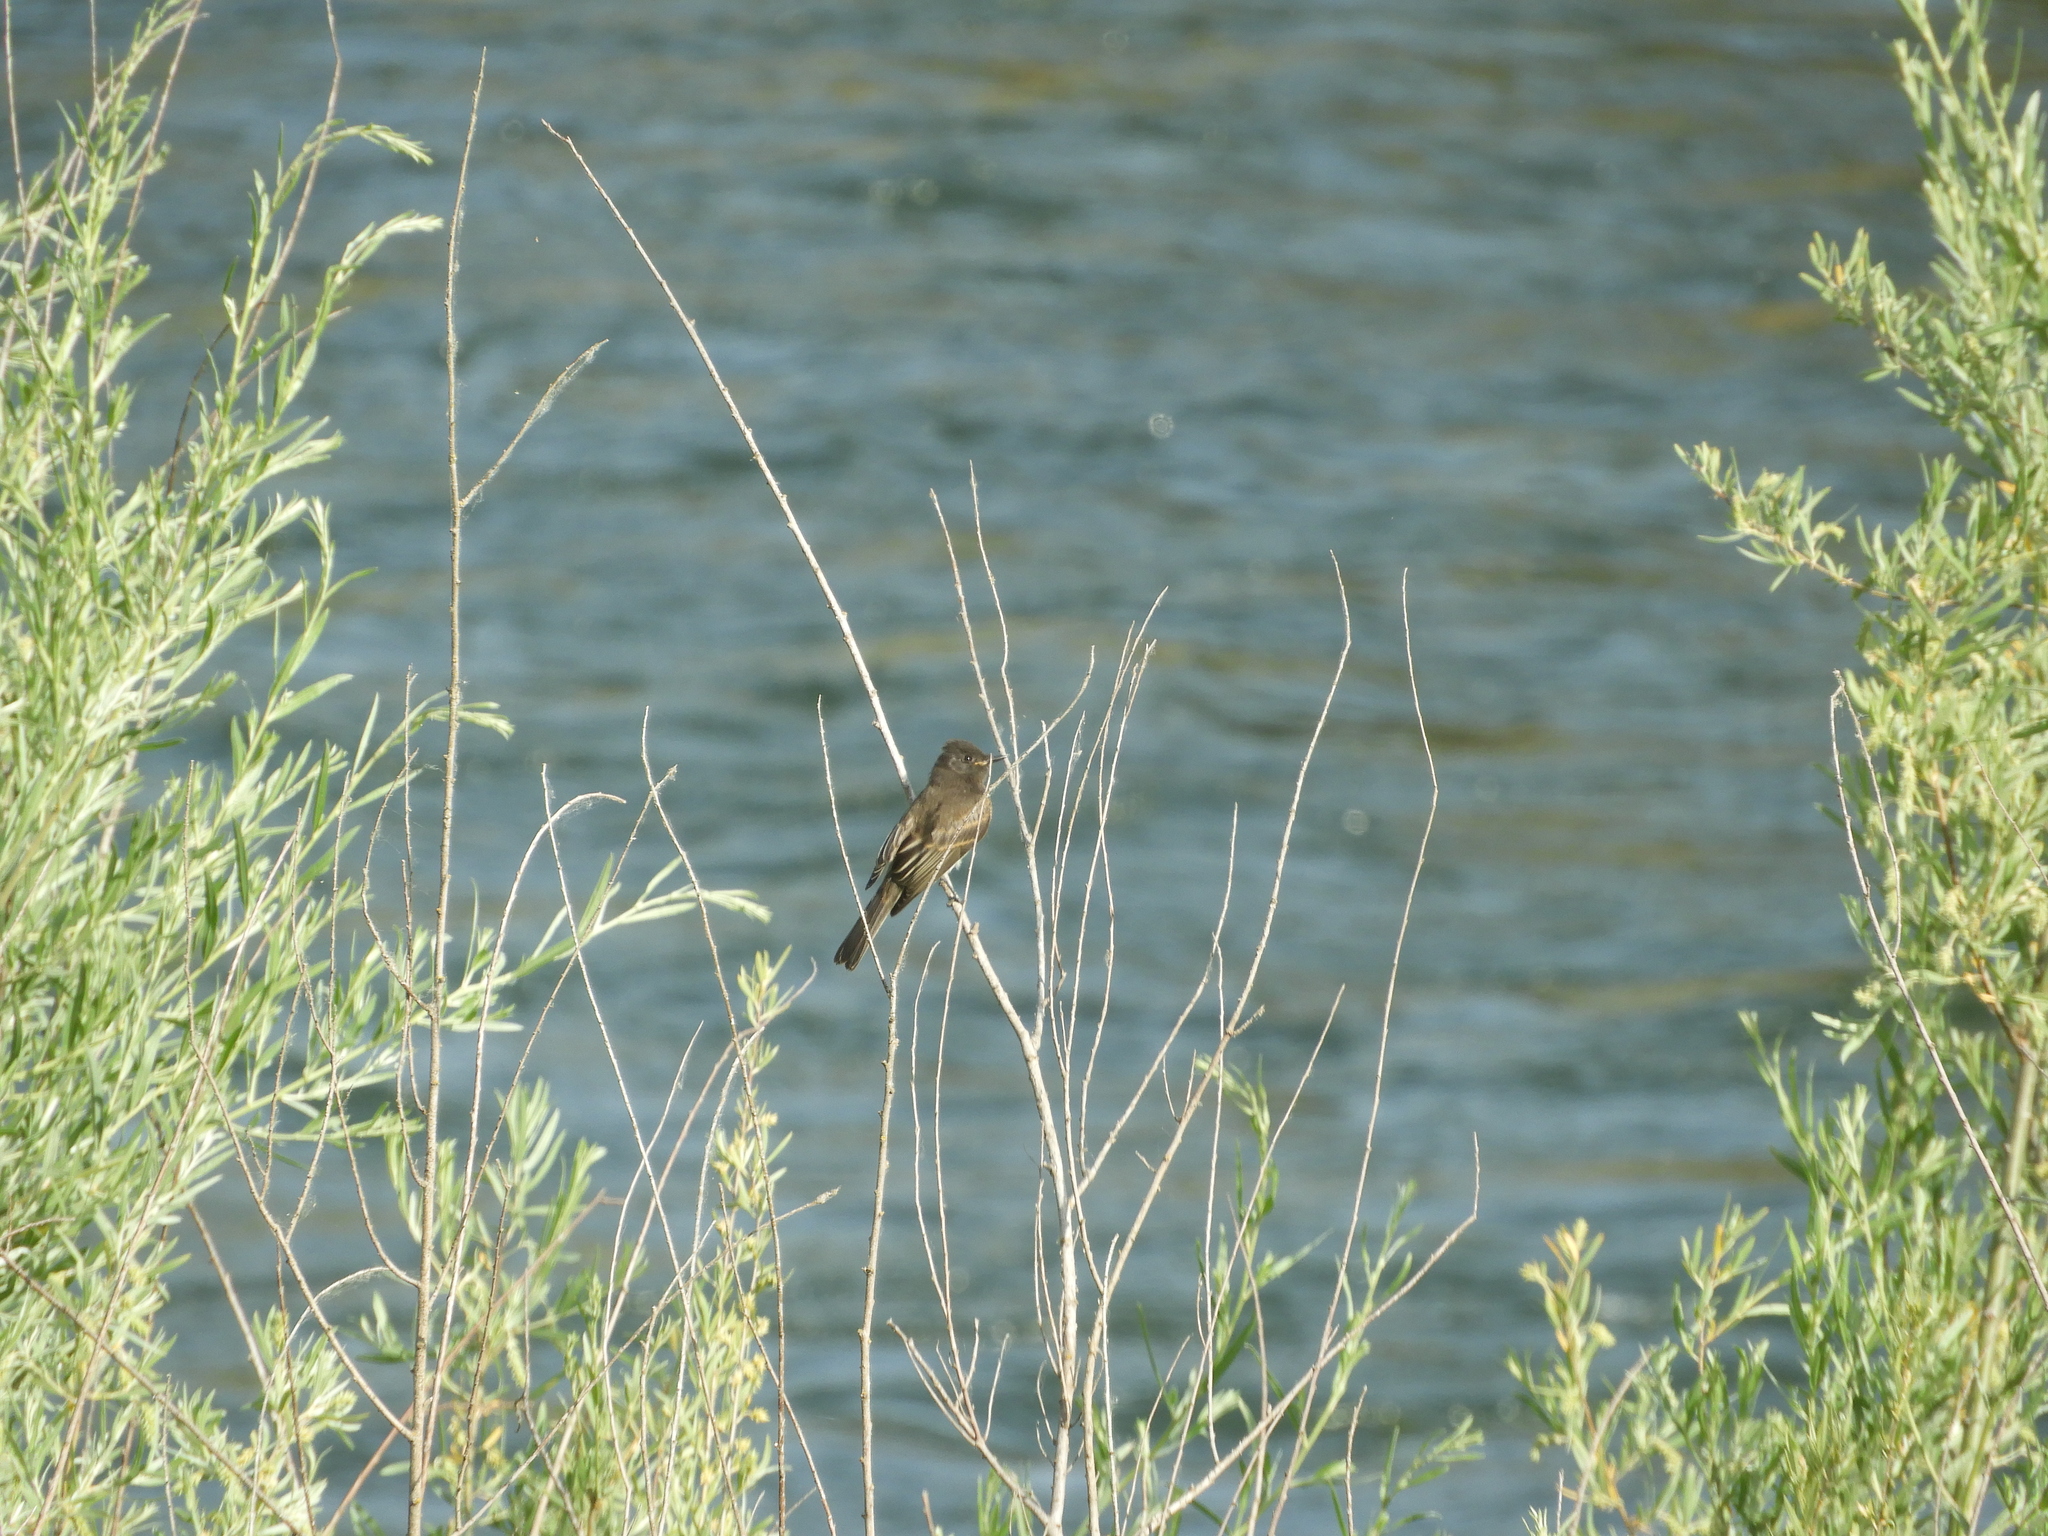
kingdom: Animalia
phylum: Chordata
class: Aves
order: Passeriformes
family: Tyrannidae
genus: Sayornis
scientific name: Sayornis nigricans
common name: Black phoebe
